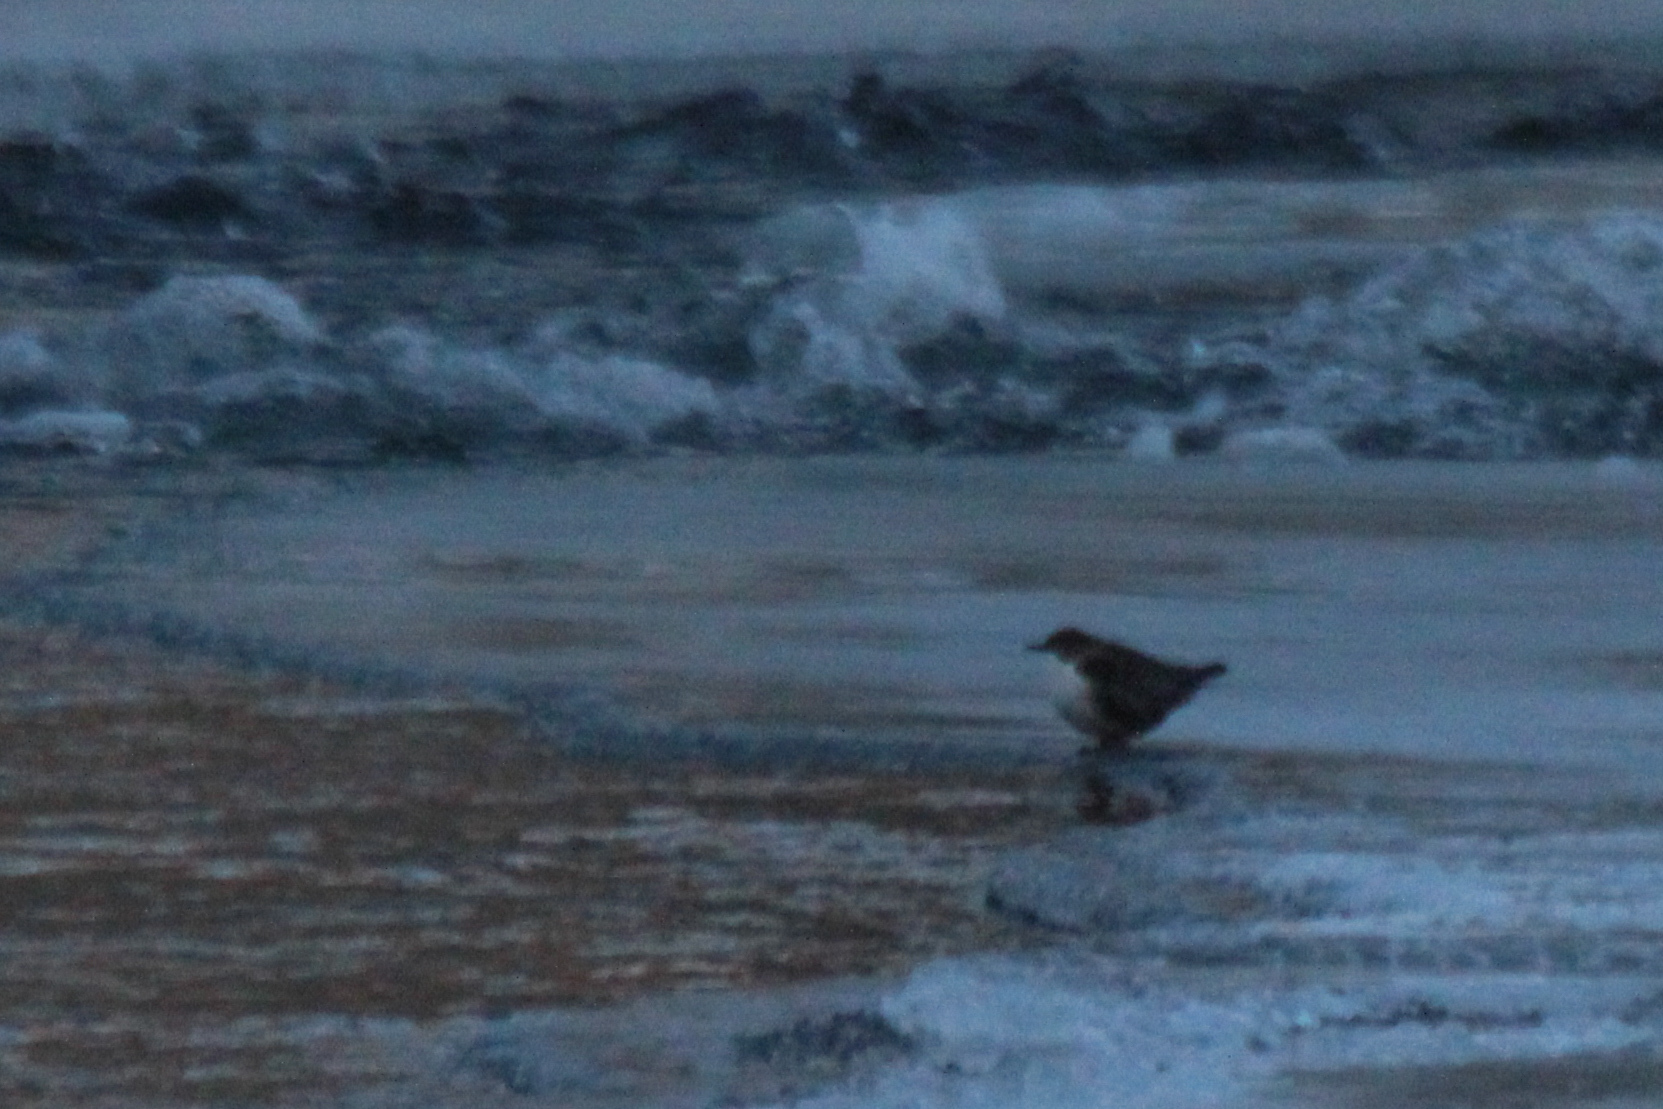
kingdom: Animalia
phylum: Chordata
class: Aves
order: Passeriformes
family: Cinclidae
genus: Cinclus
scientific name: Cinclus cinclus
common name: White-throated dipper
